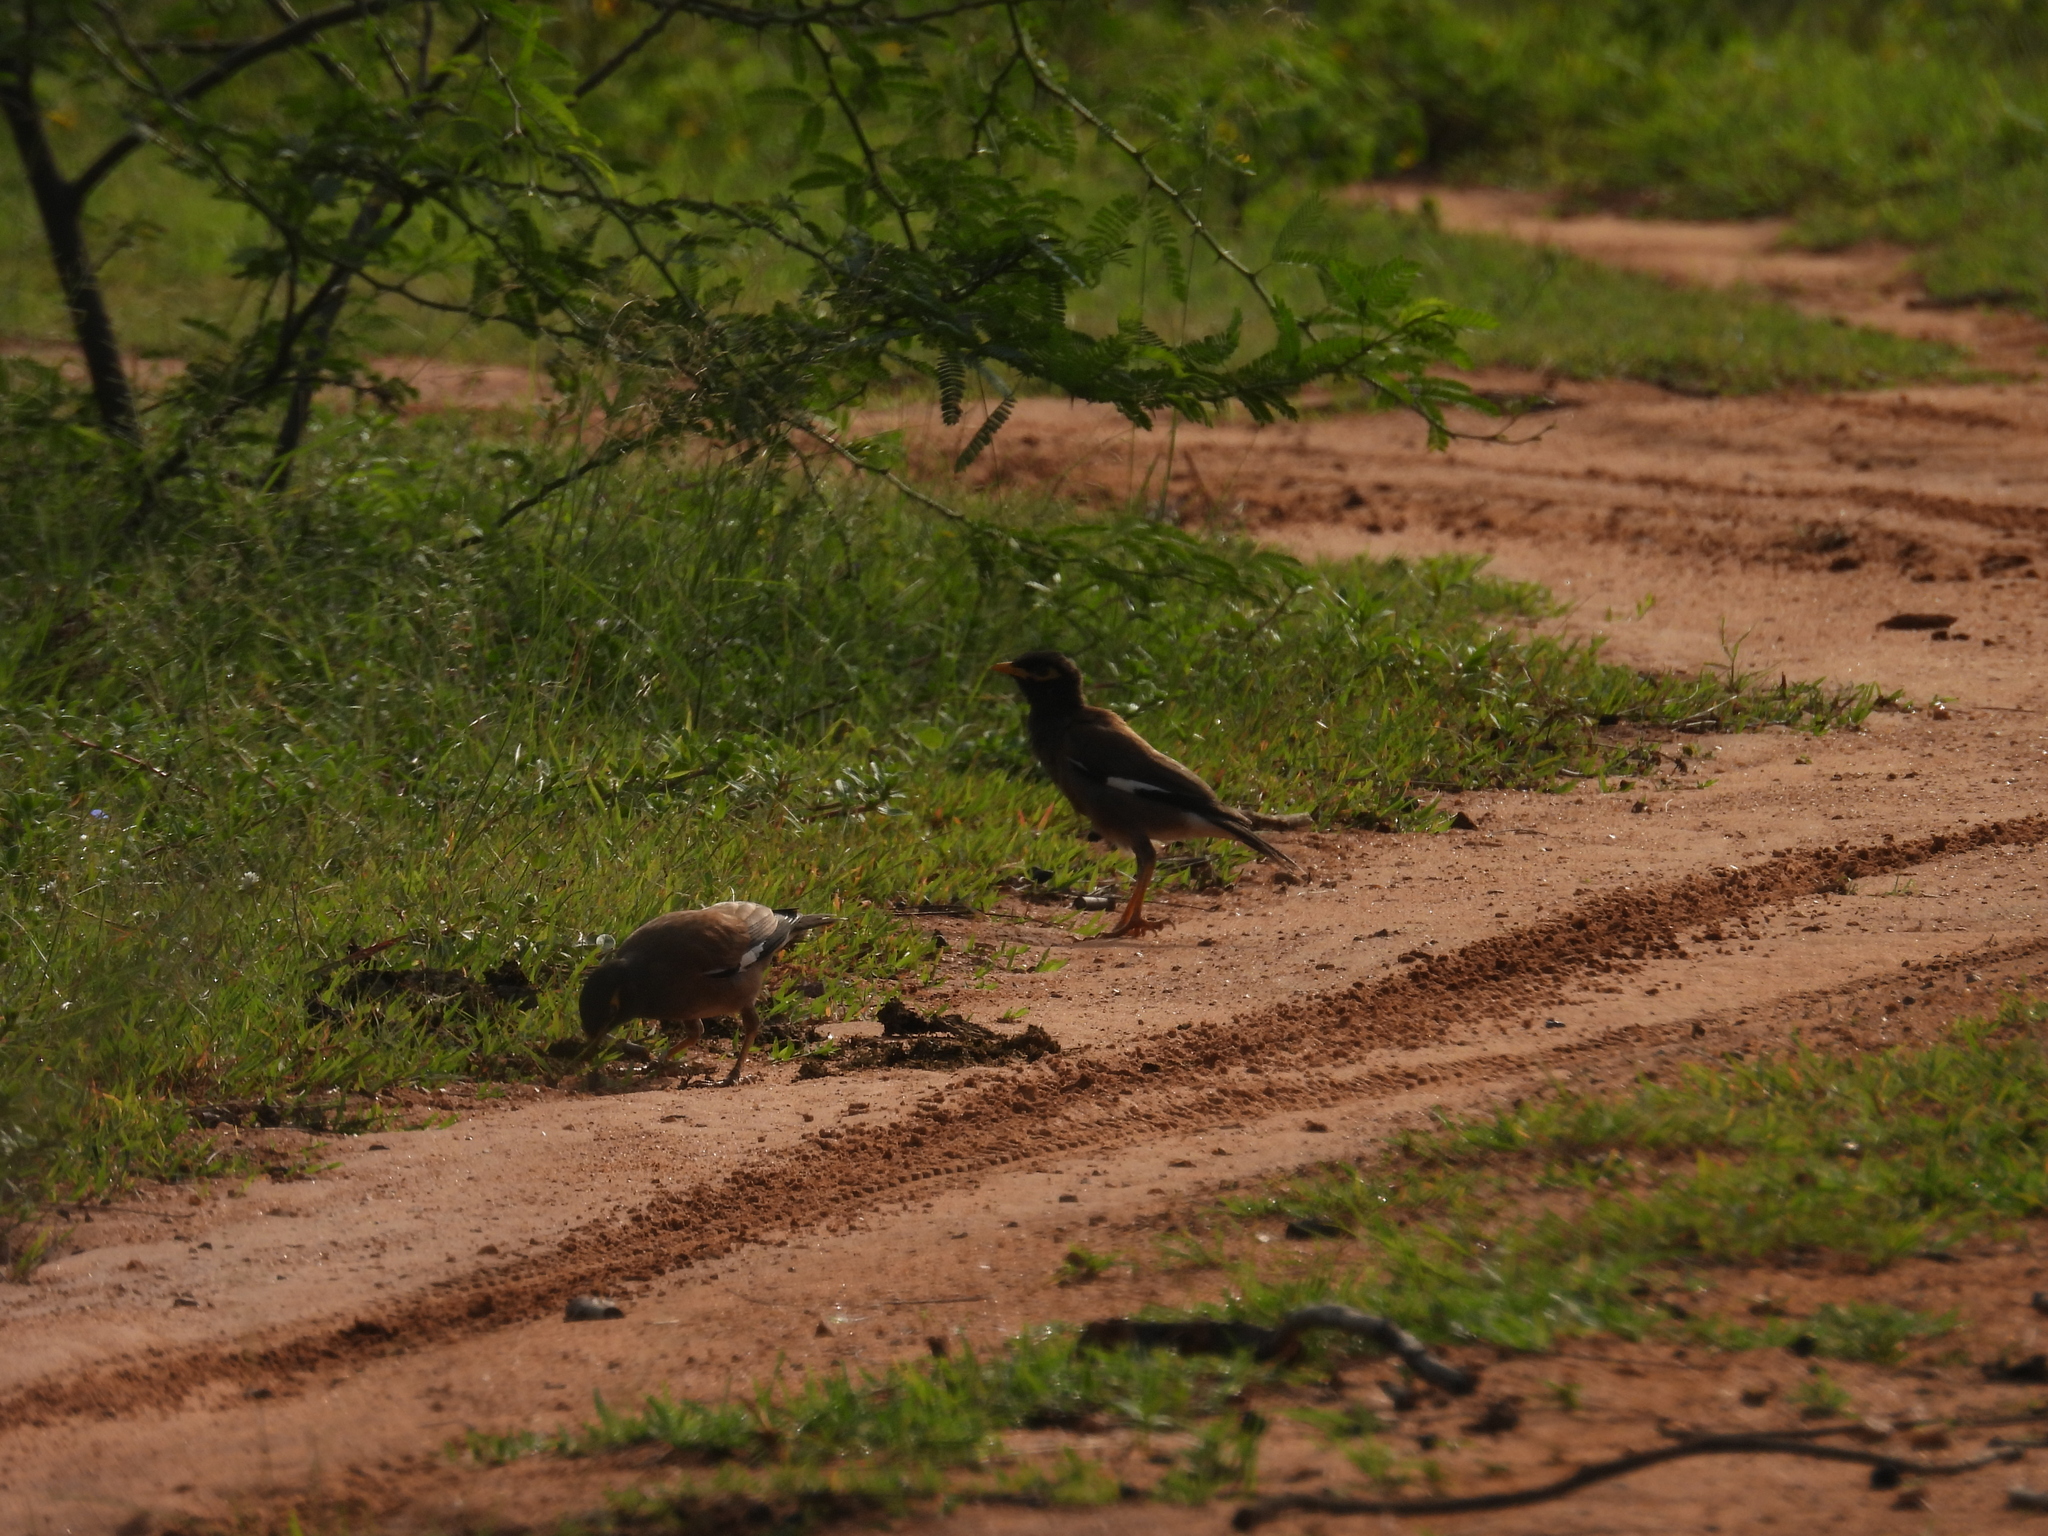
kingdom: Animalia
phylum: Chordata
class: Aves
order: Passeriformes
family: Sturnidae
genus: Acridotheres
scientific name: Acridotheres tristis
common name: Common myna
